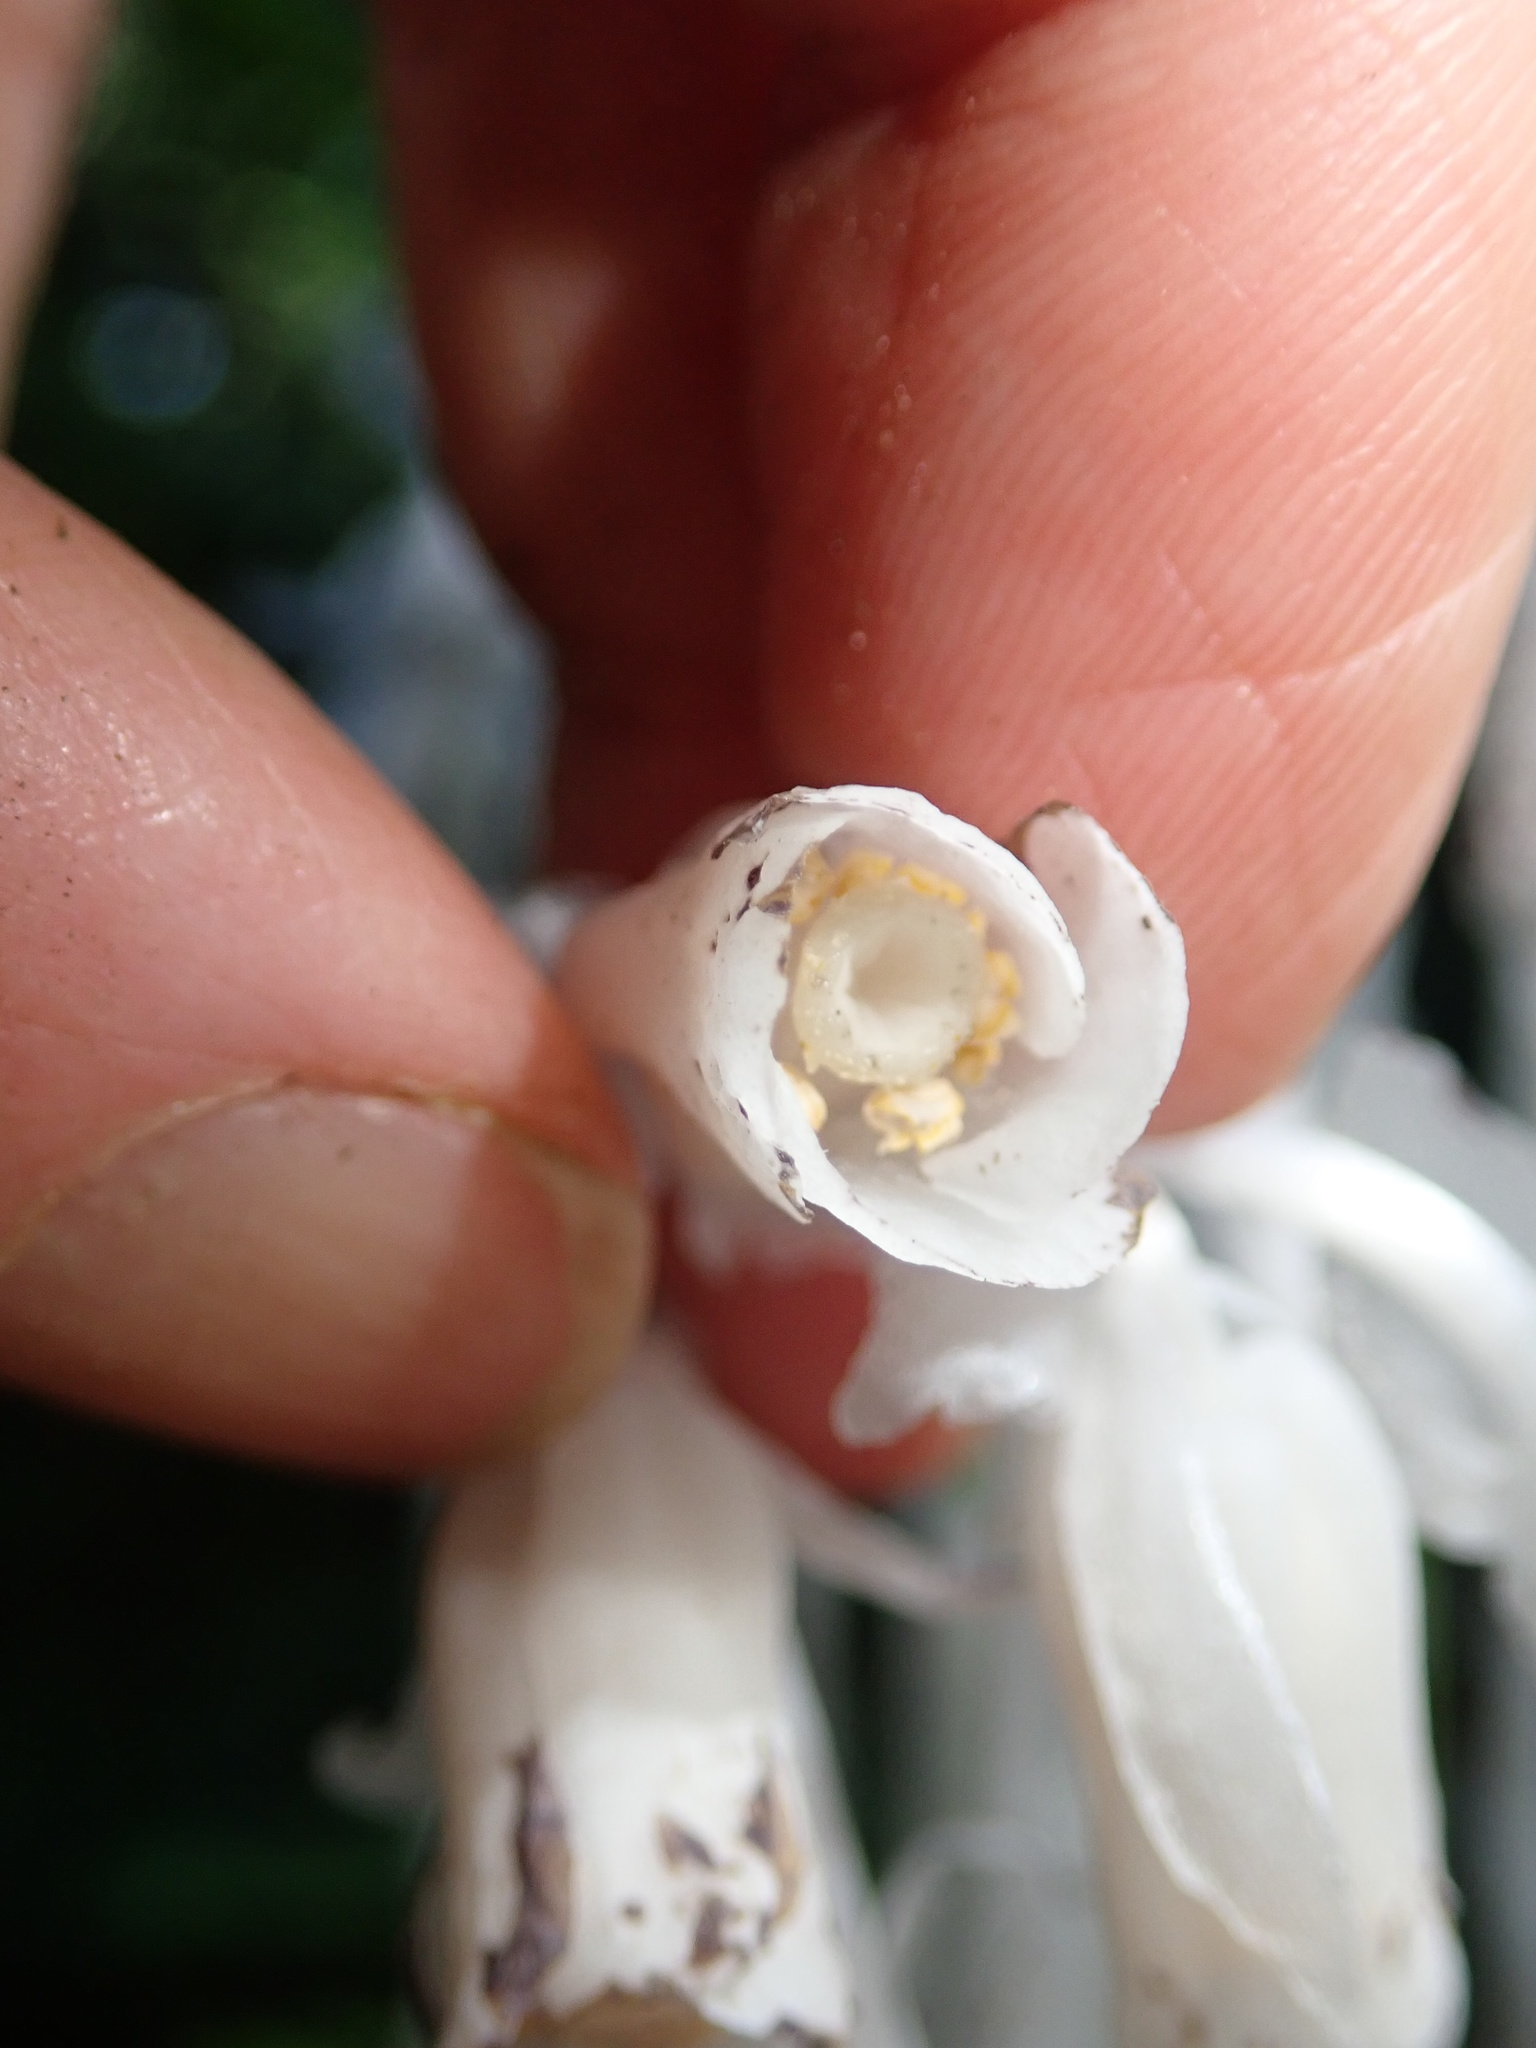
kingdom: Plantae
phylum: Tracheophyta
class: Magnoliopsida
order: Ericales
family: Ericaceae
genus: Monotropa
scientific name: Monotropa uniflora
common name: Convulsion root
